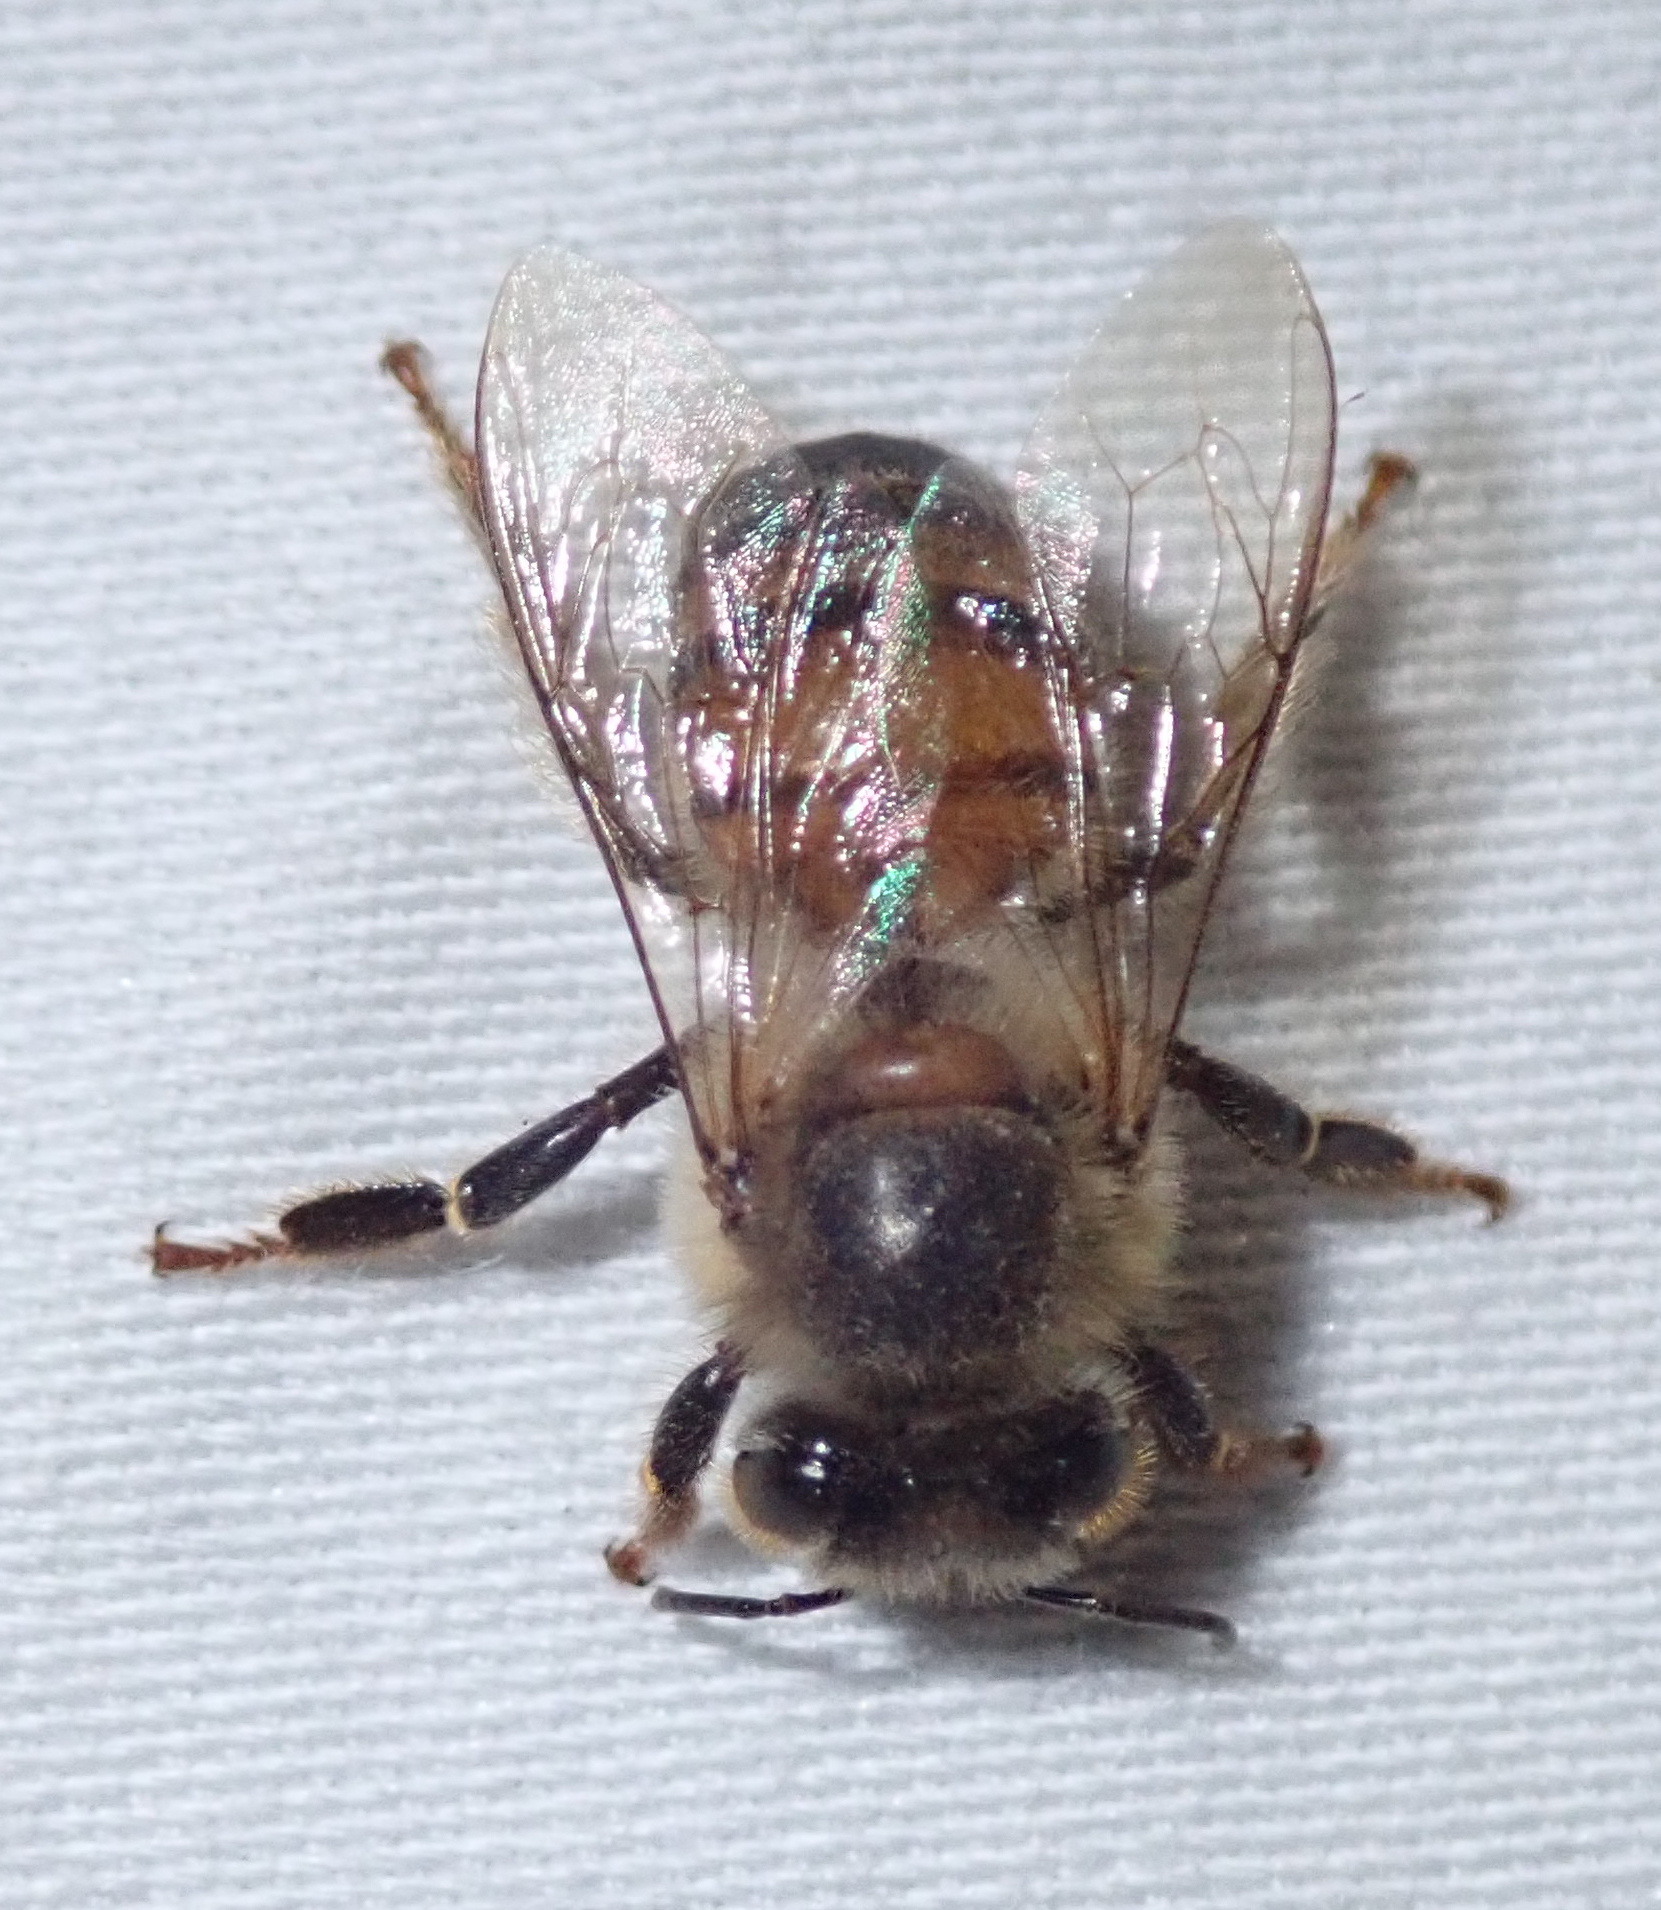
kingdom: Animalia
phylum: Arthropoda
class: Insecta
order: Hymenoptera
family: Apidae
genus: Apis
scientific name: Apis mellifera
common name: Honey bee
